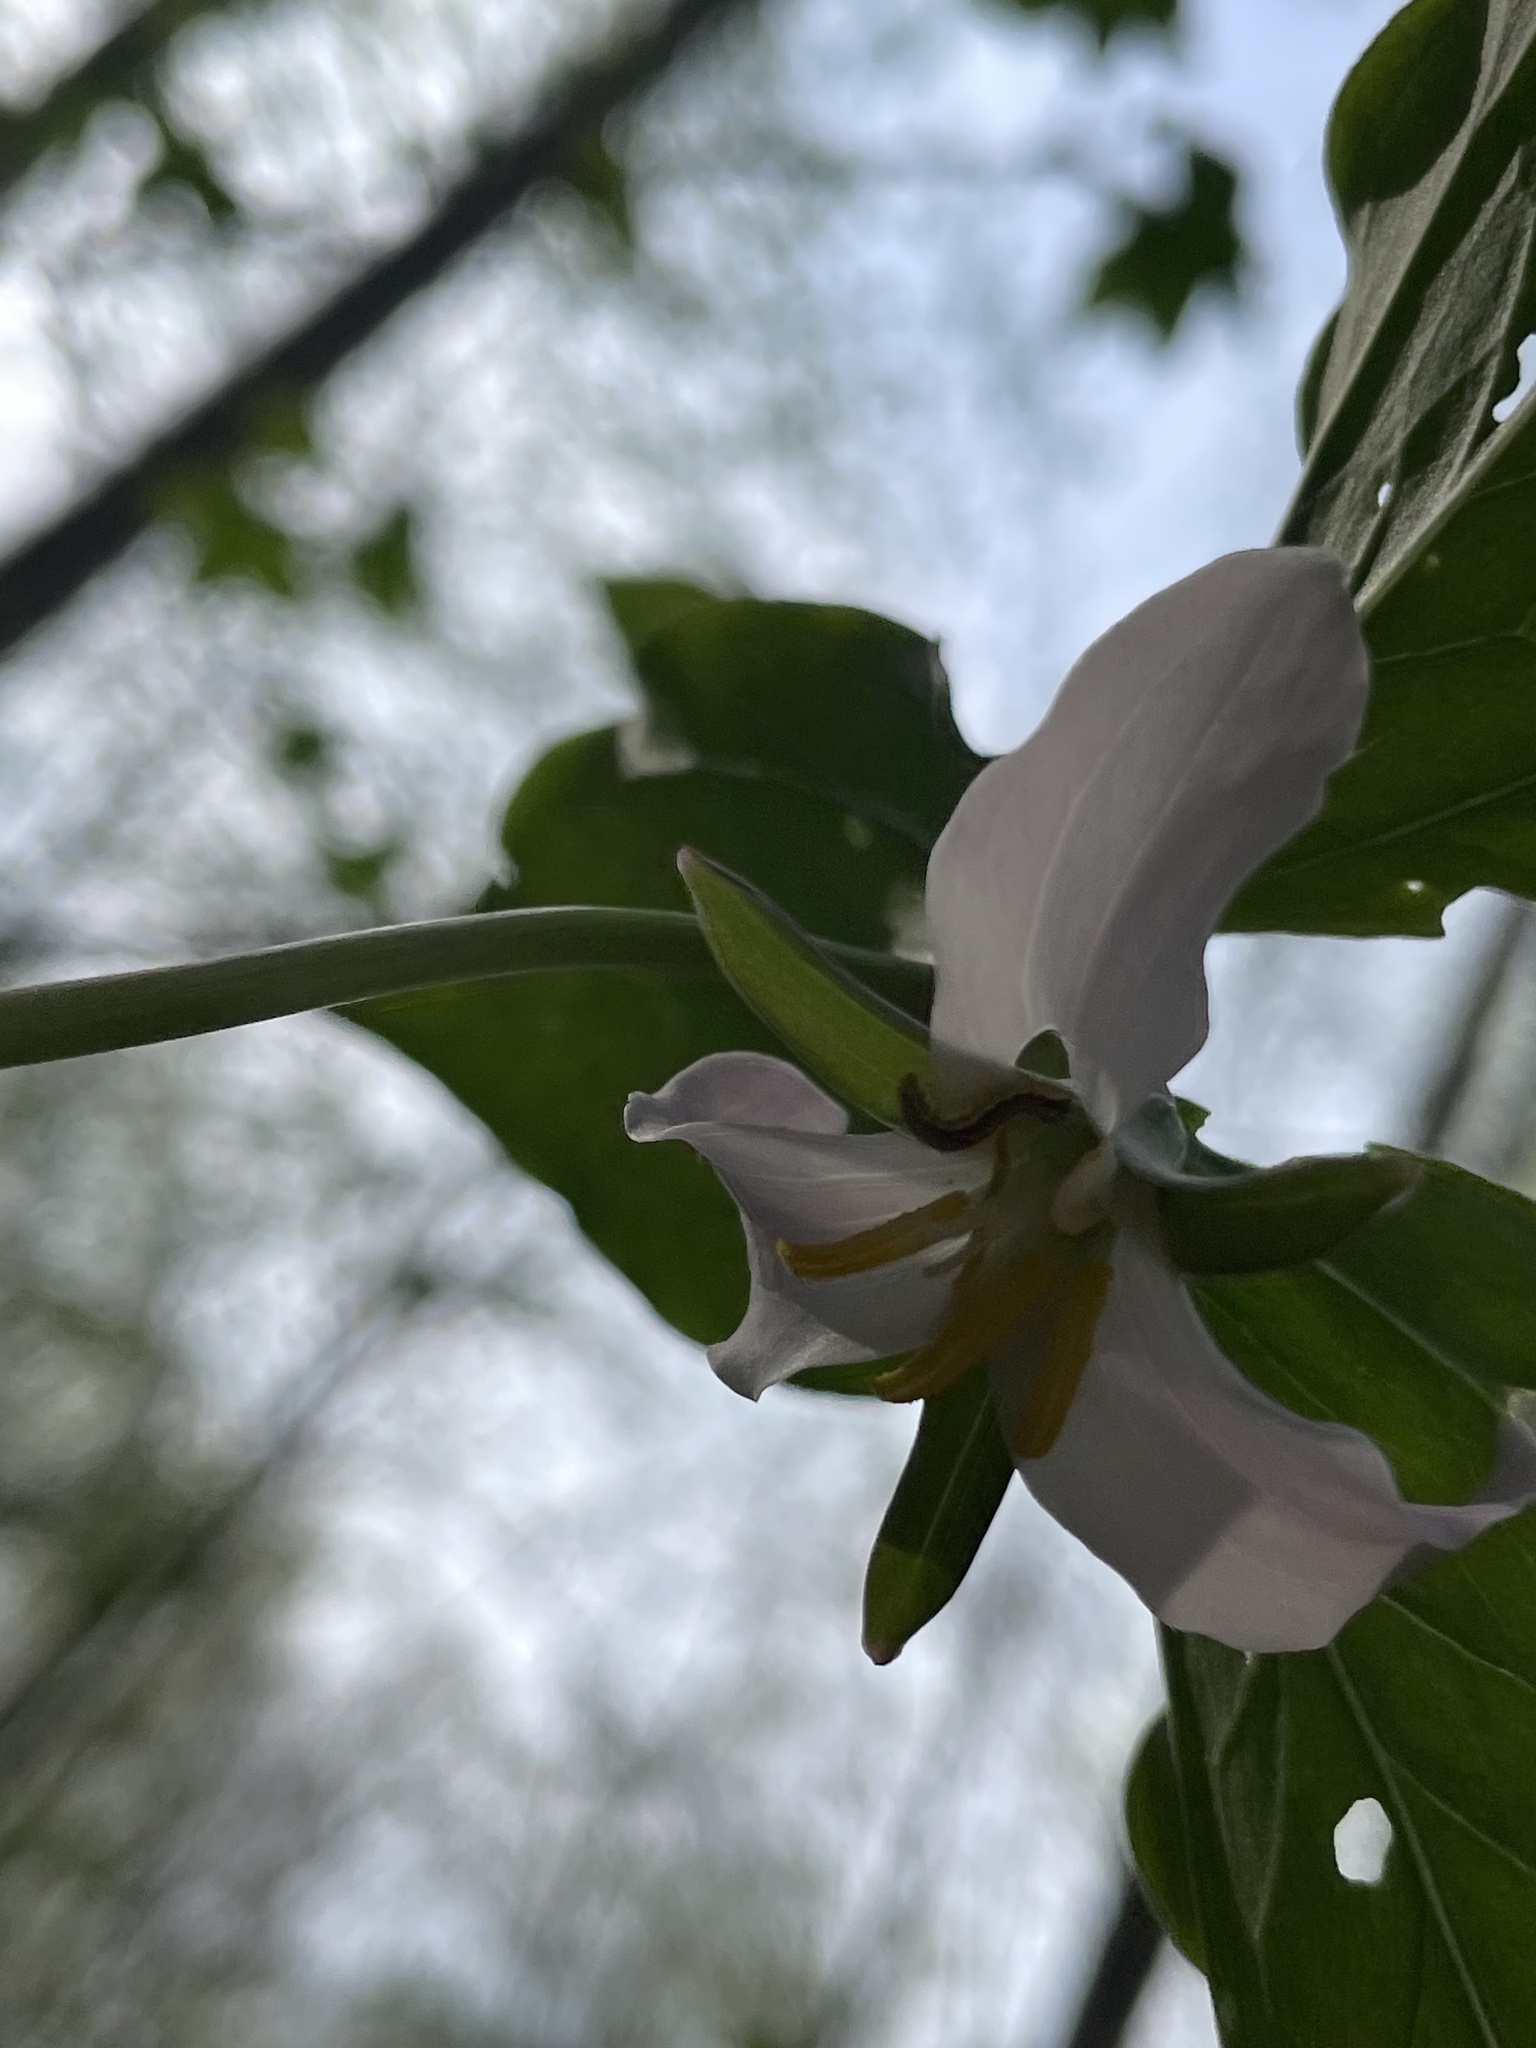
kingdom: Plantae
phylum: Tracheophyta
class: Liliopsida
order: Liliales
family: Melanthiaceae
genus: Trillium
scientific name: Trillium catesbaei
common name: Bashful trillium
